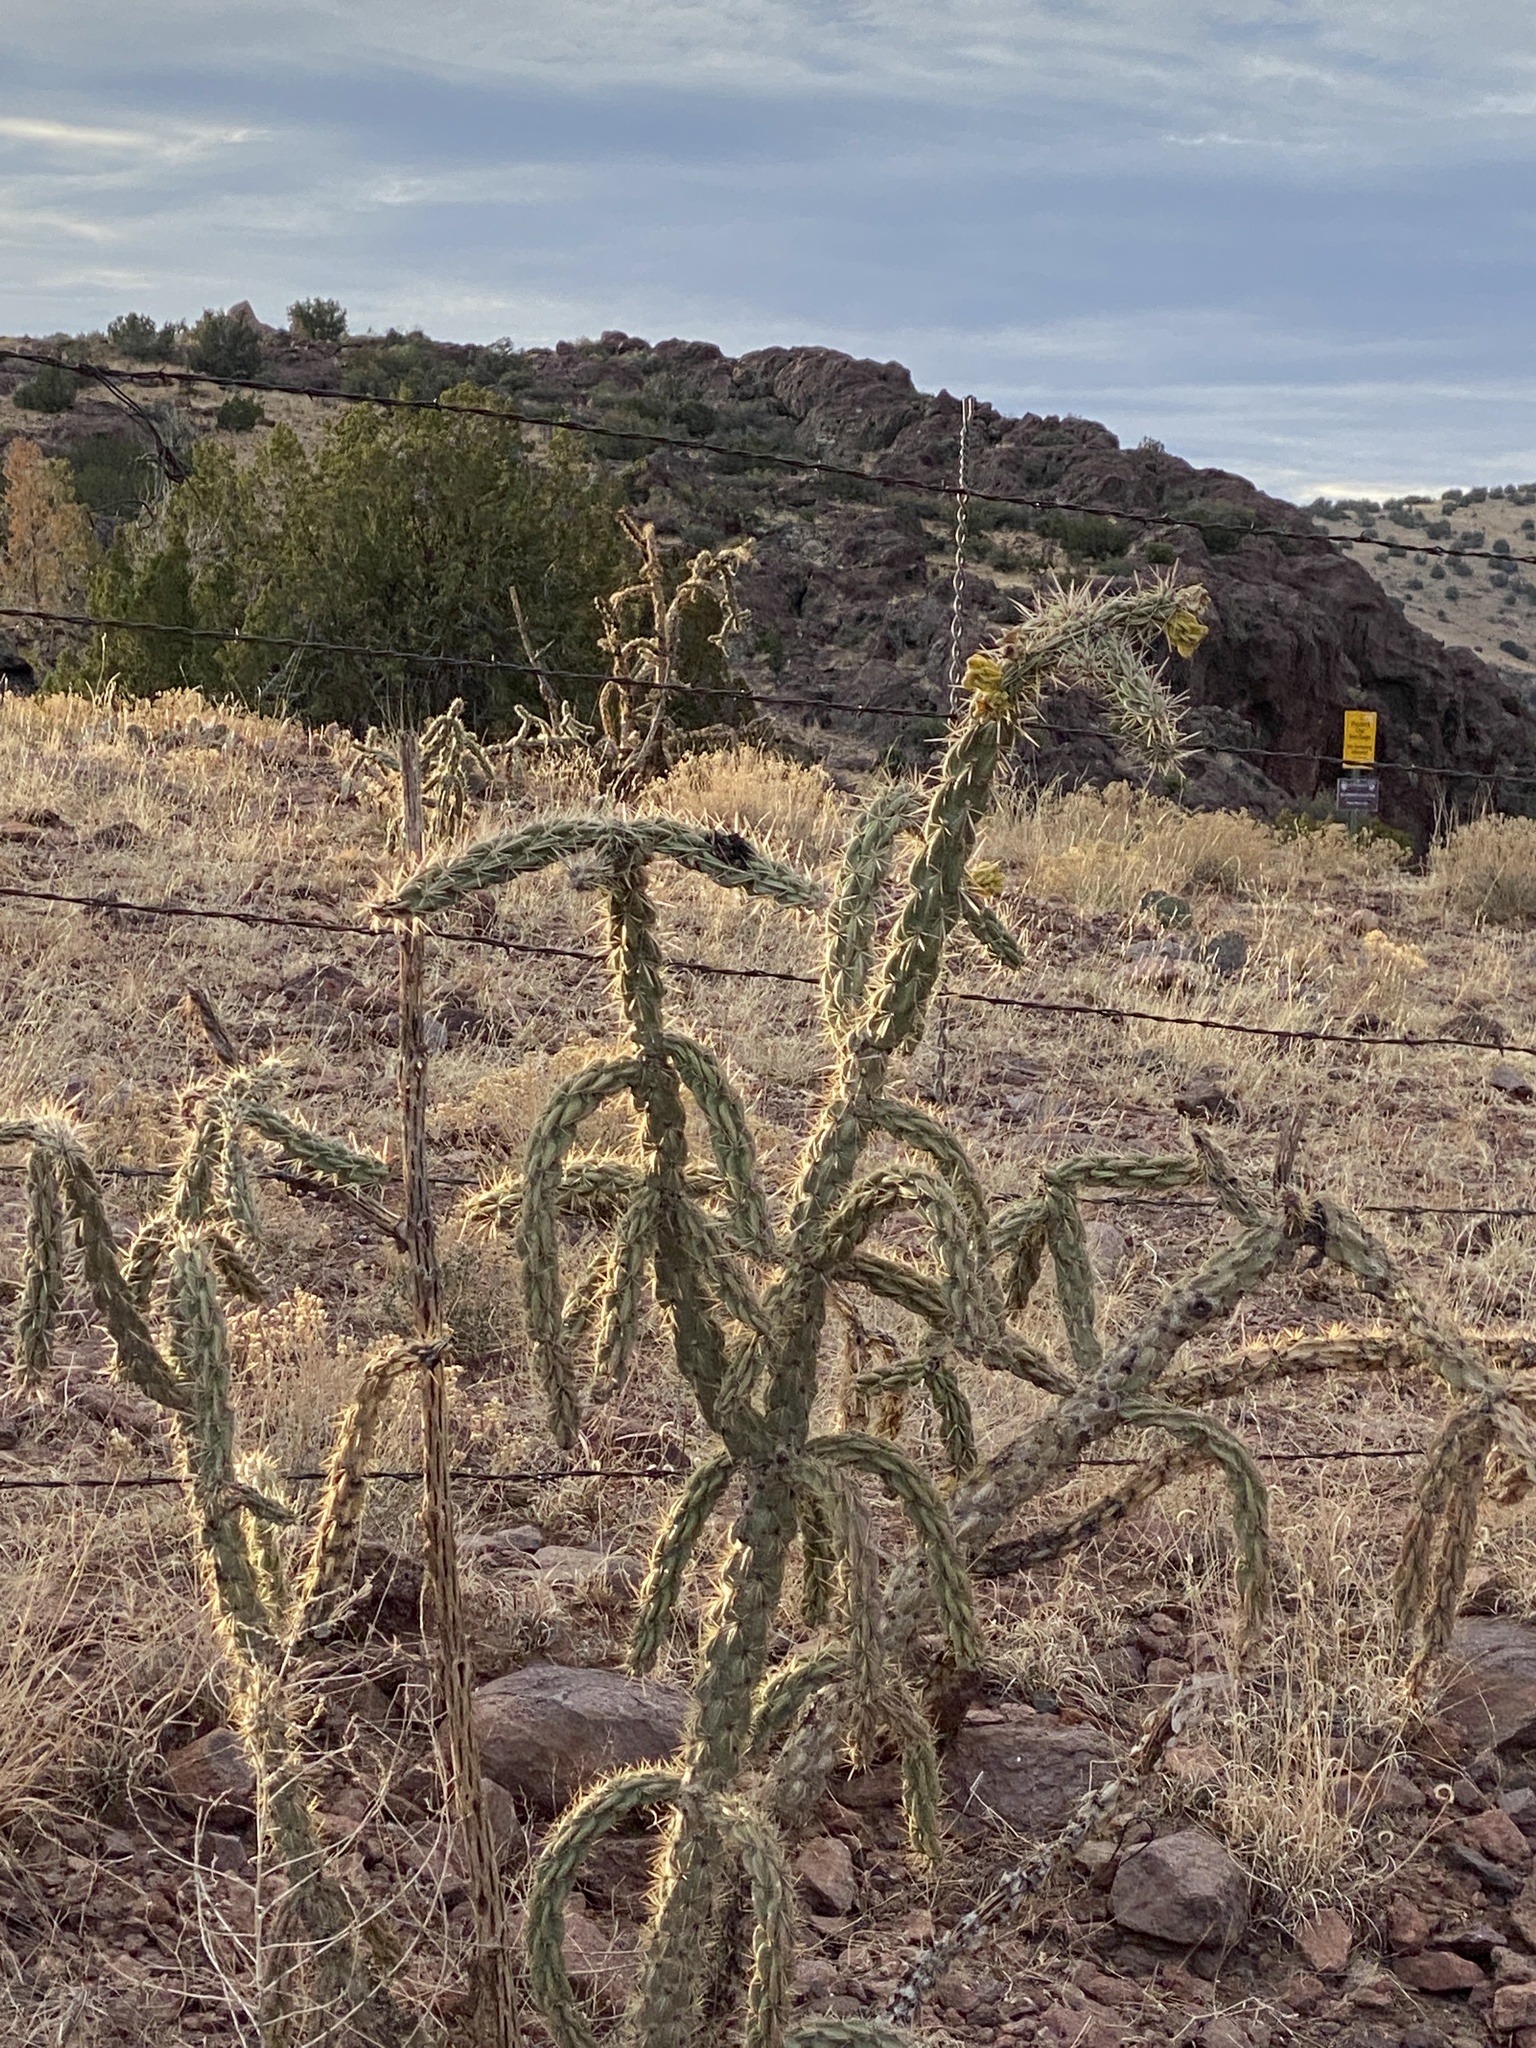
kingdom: Plantae
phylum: Tracheophyta
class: Magnoliopsida
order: Caryophyllales
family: Cactaceae
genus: Cylindropuntia
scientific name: Cylindropuntia imbricata
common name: Candelabrum cactus
